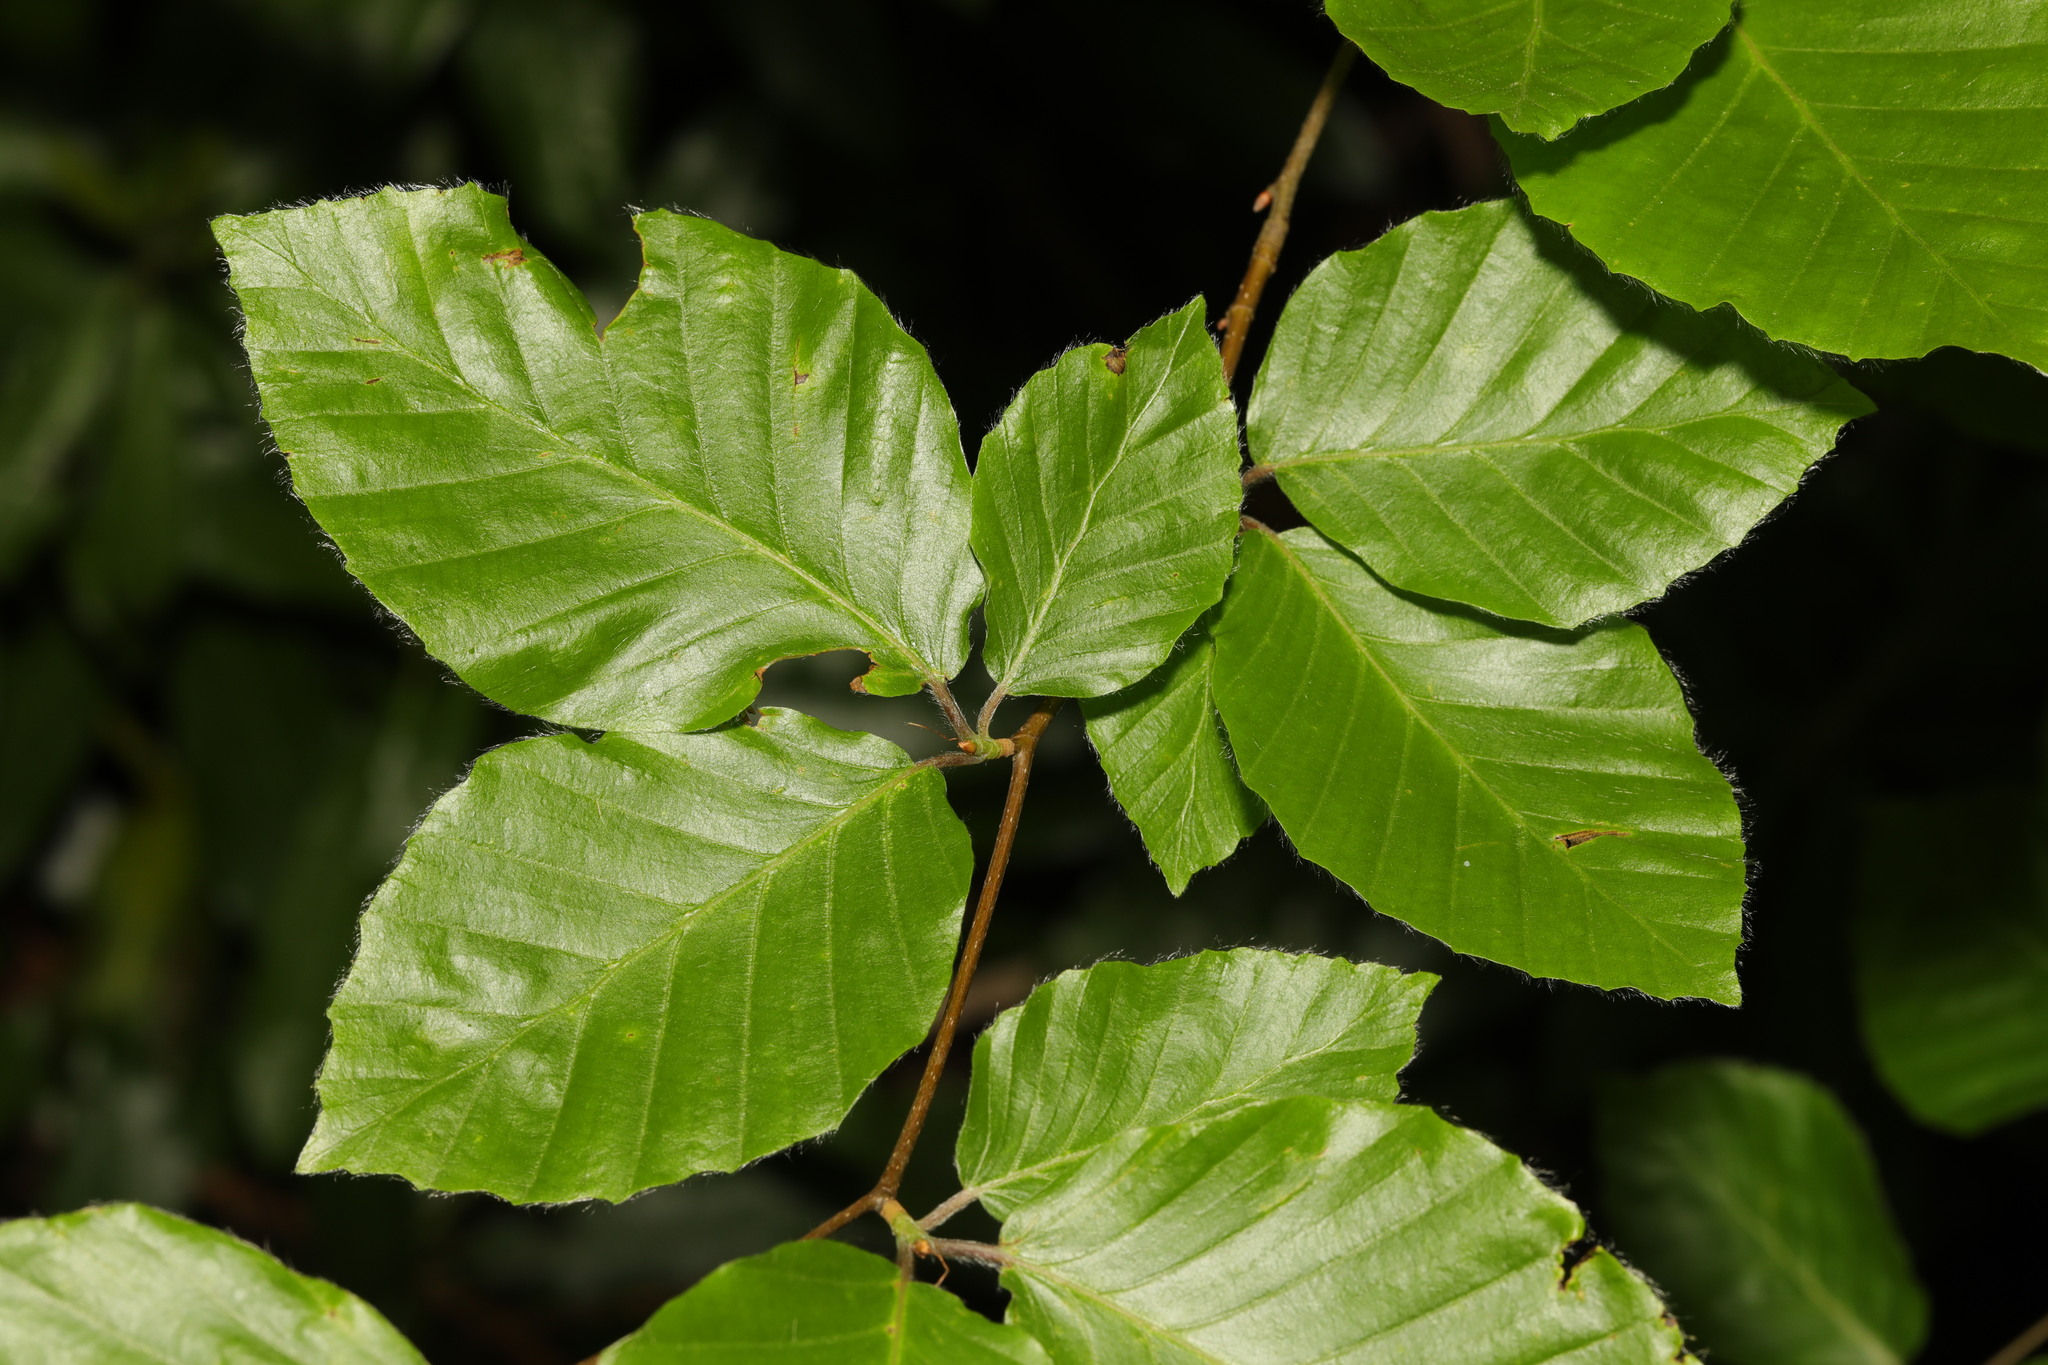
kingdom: Plantae
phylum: Tracheophyta
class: Magnoliopsida
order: Fagales
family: Fagaceae
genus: Fagus
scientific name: Fagus sylvatica
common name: Beech
